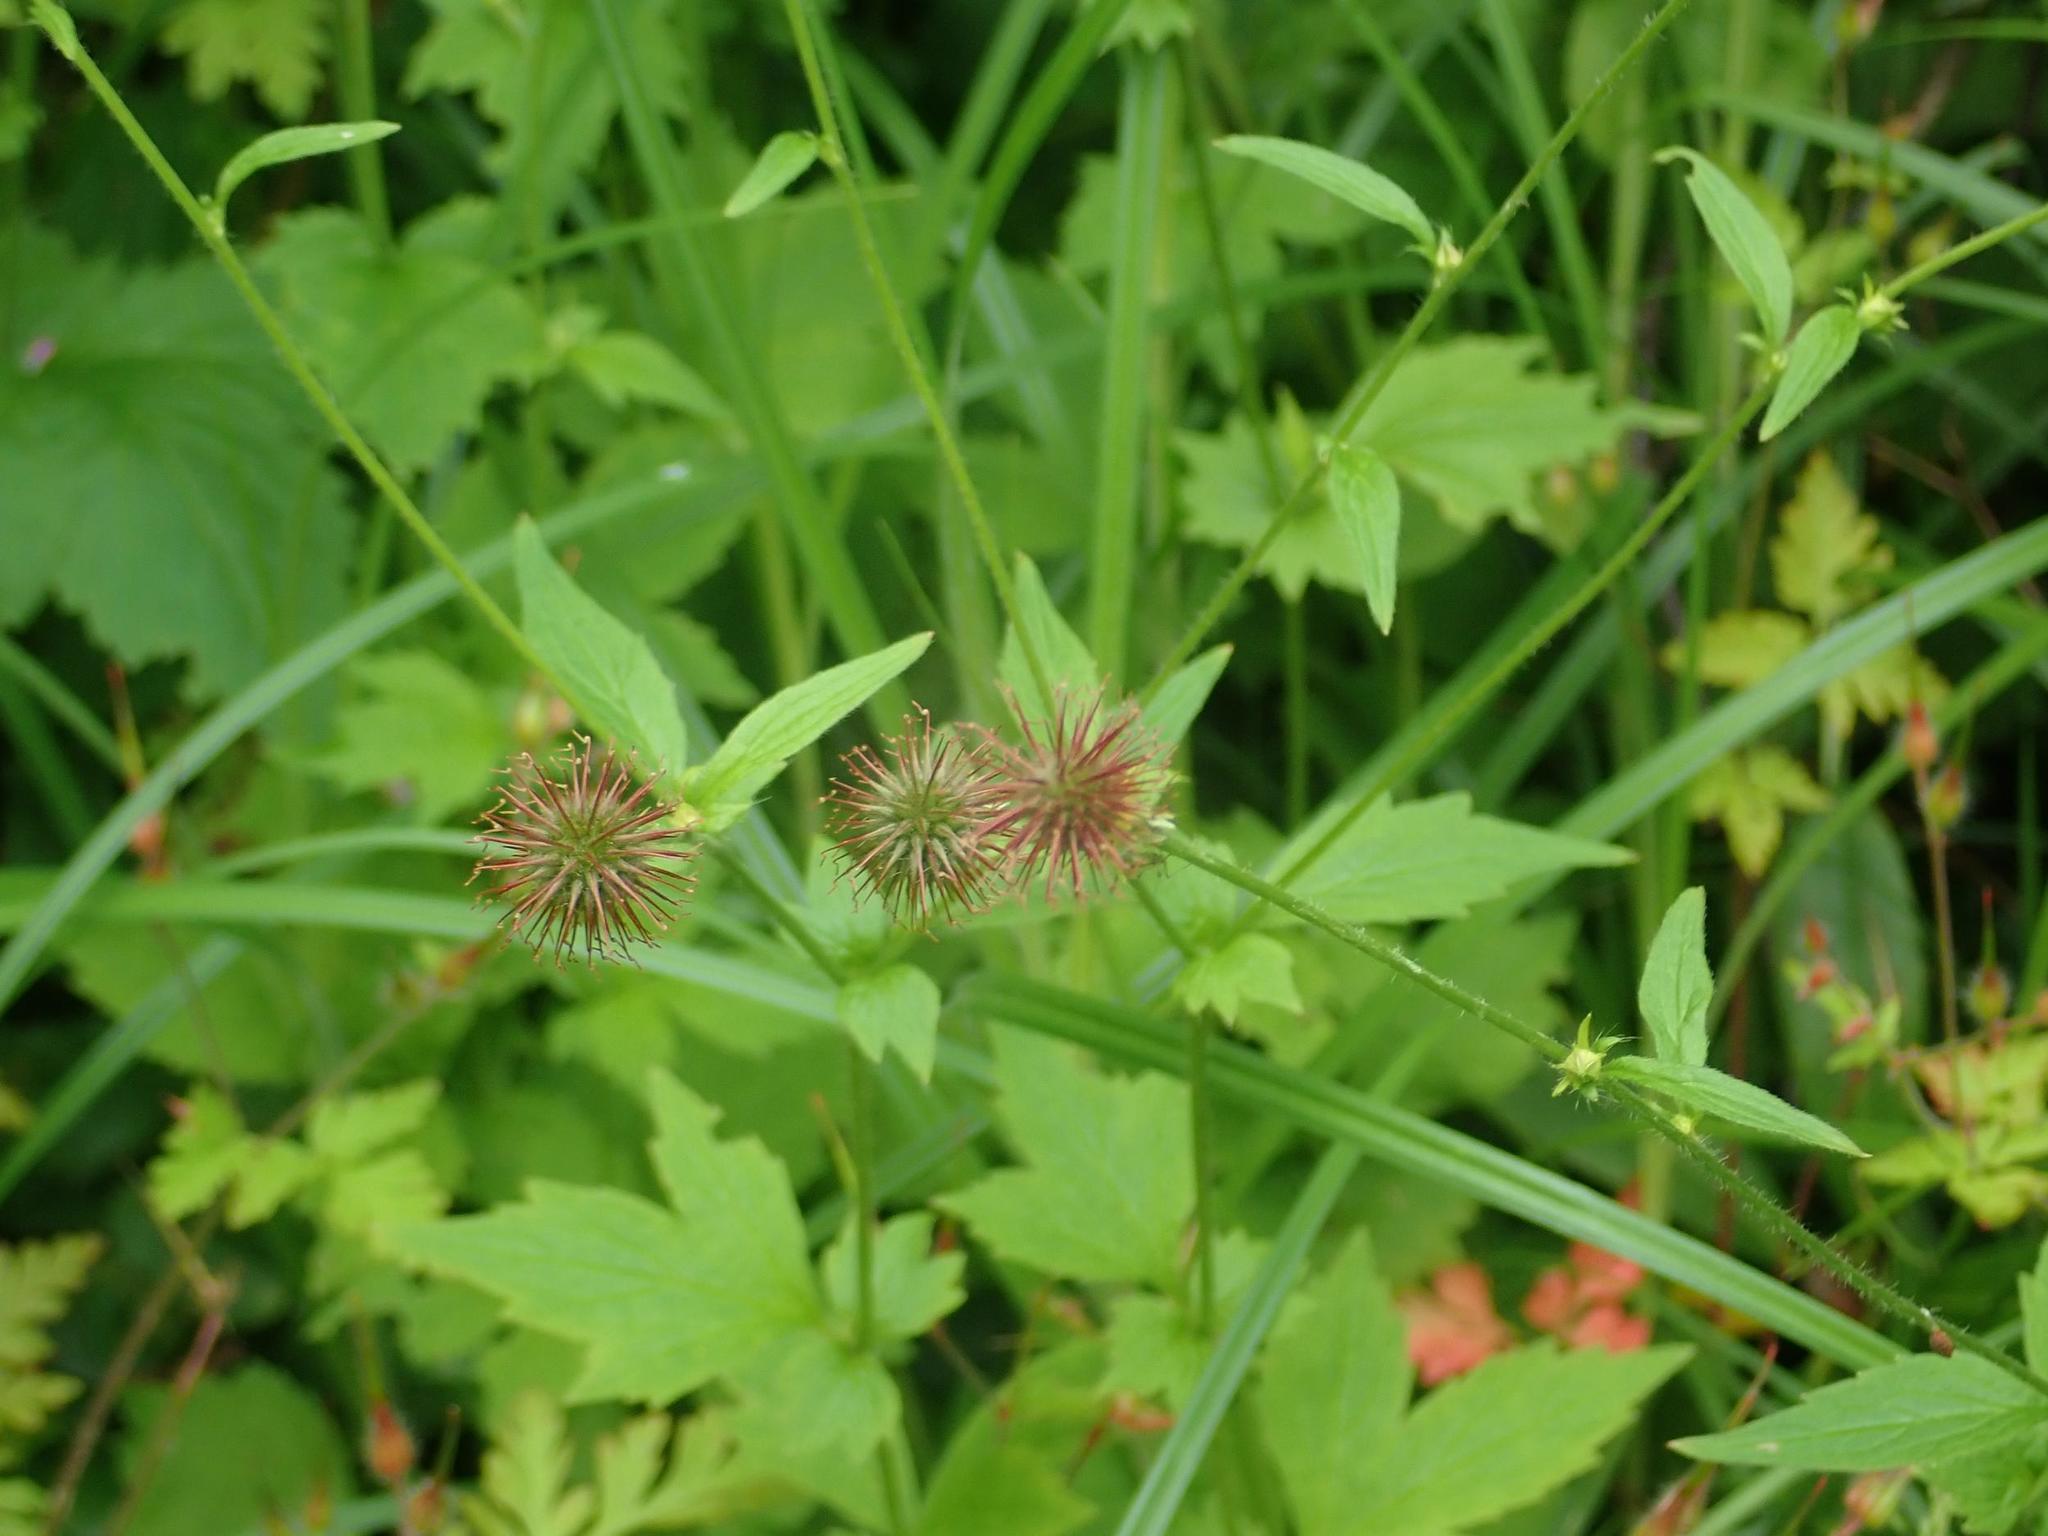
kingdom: Plantae
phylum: Tracheophyta
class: Magnoliopsida
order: Rosales
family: Rosaceae
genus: Geum
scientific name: Geum urbanum
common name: Wood avens
